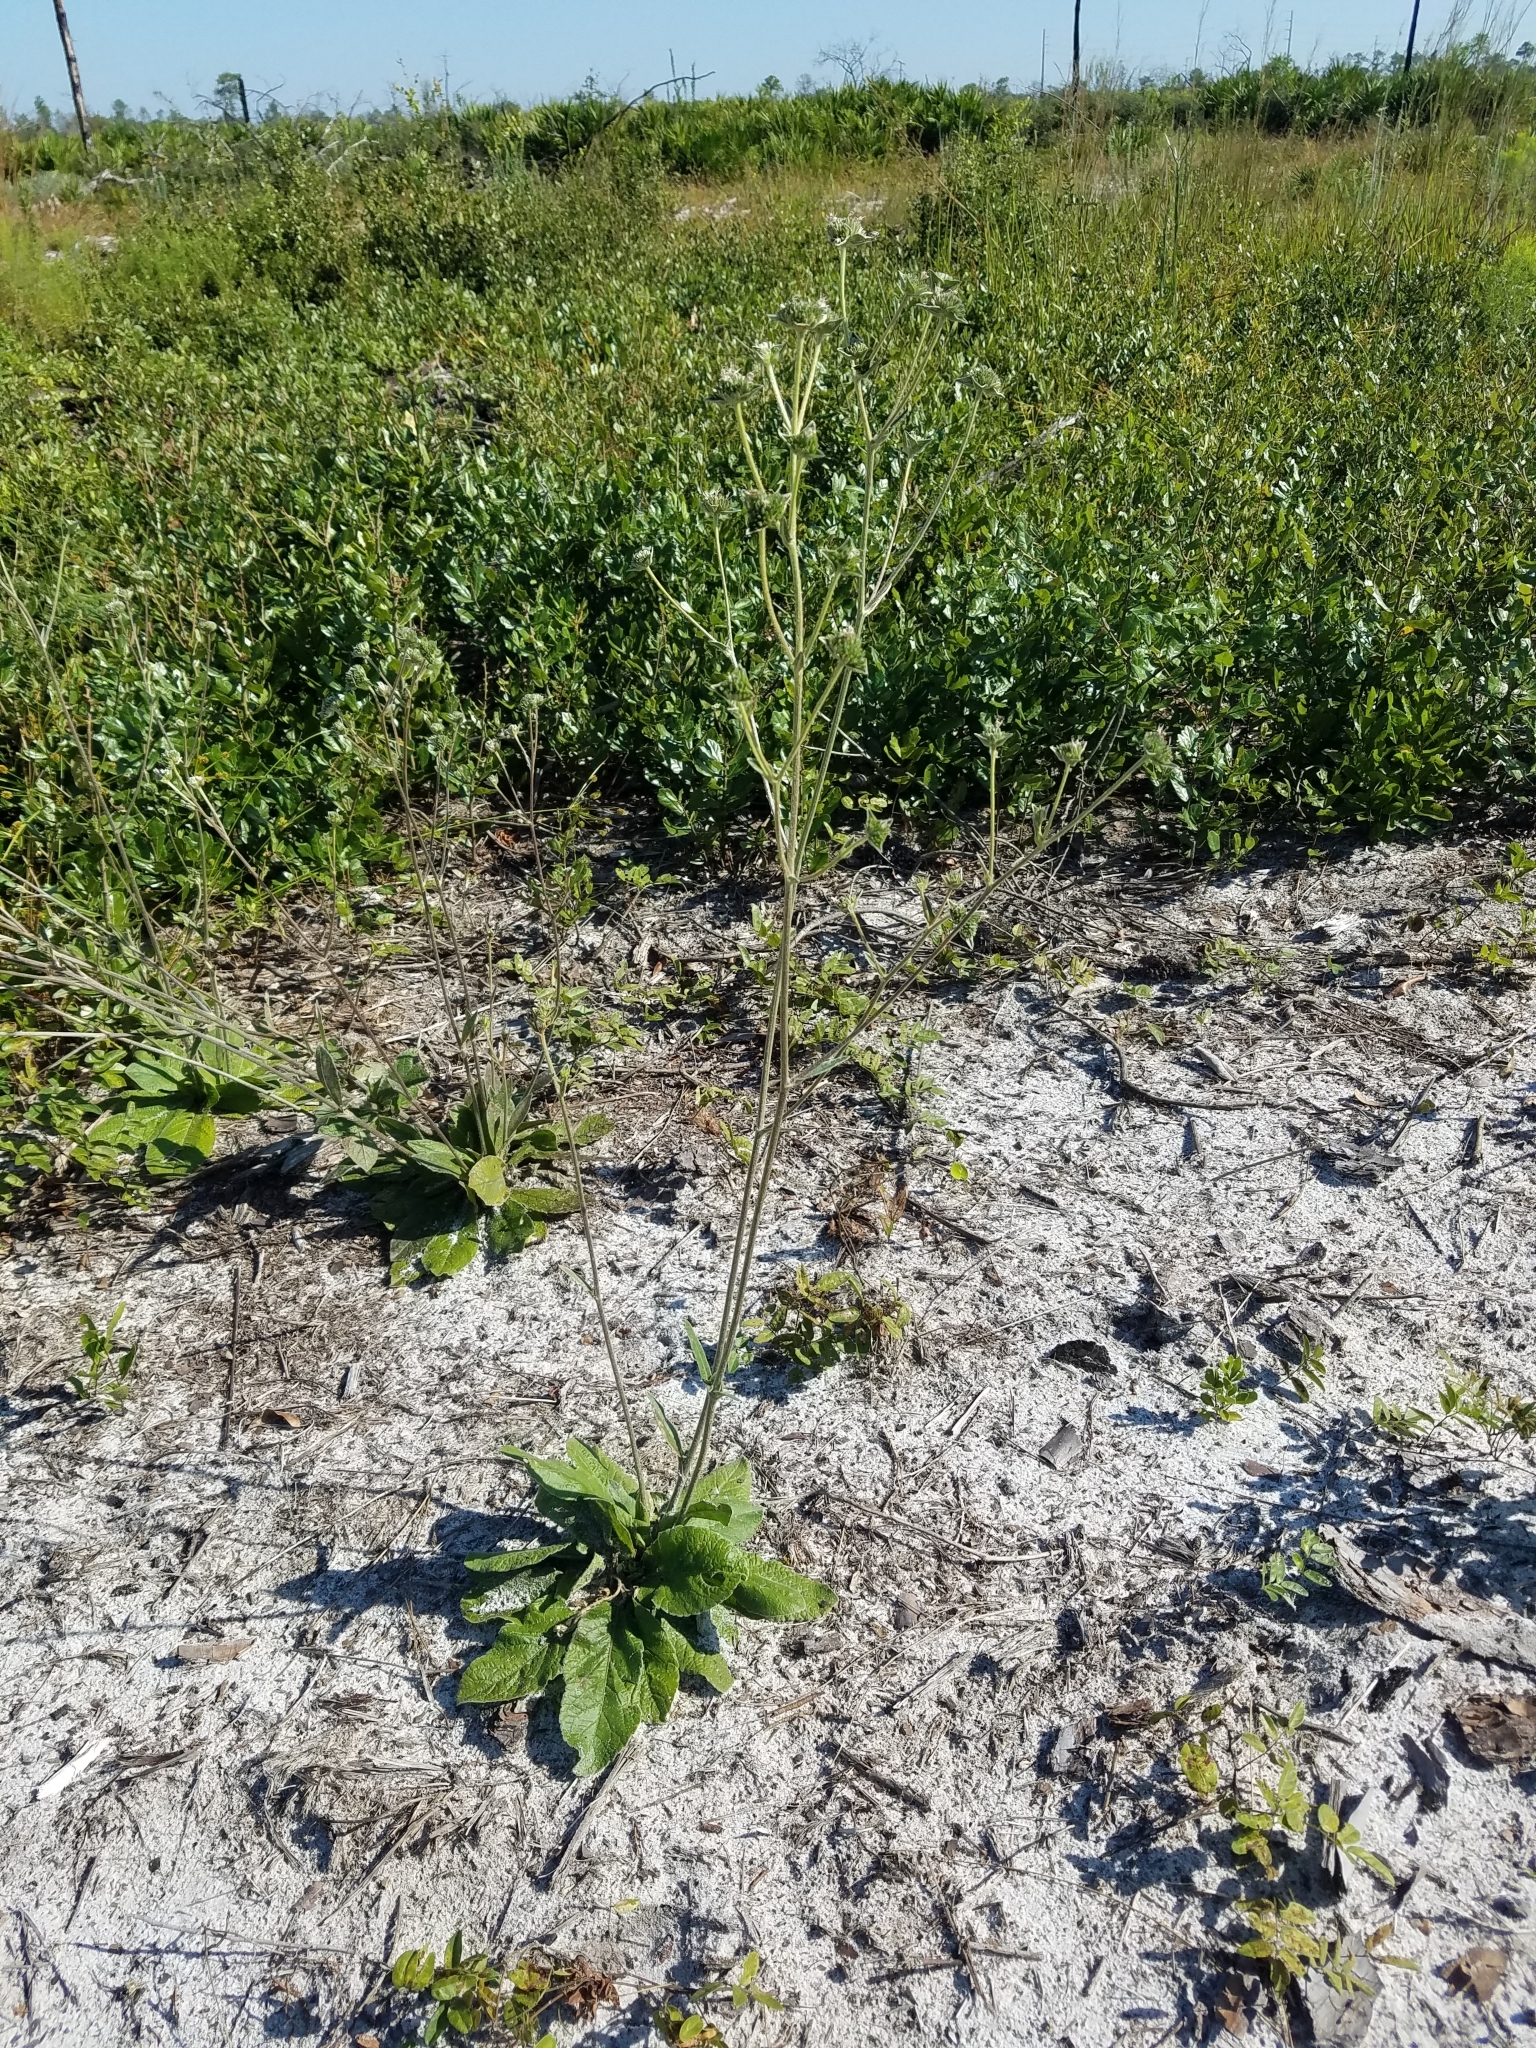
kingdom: Plantae
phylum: Tracheophyta
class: Magnoliopsida
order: Asterales
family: Asteraceae
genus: Elephantopus
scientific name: Elephantopus elatus
